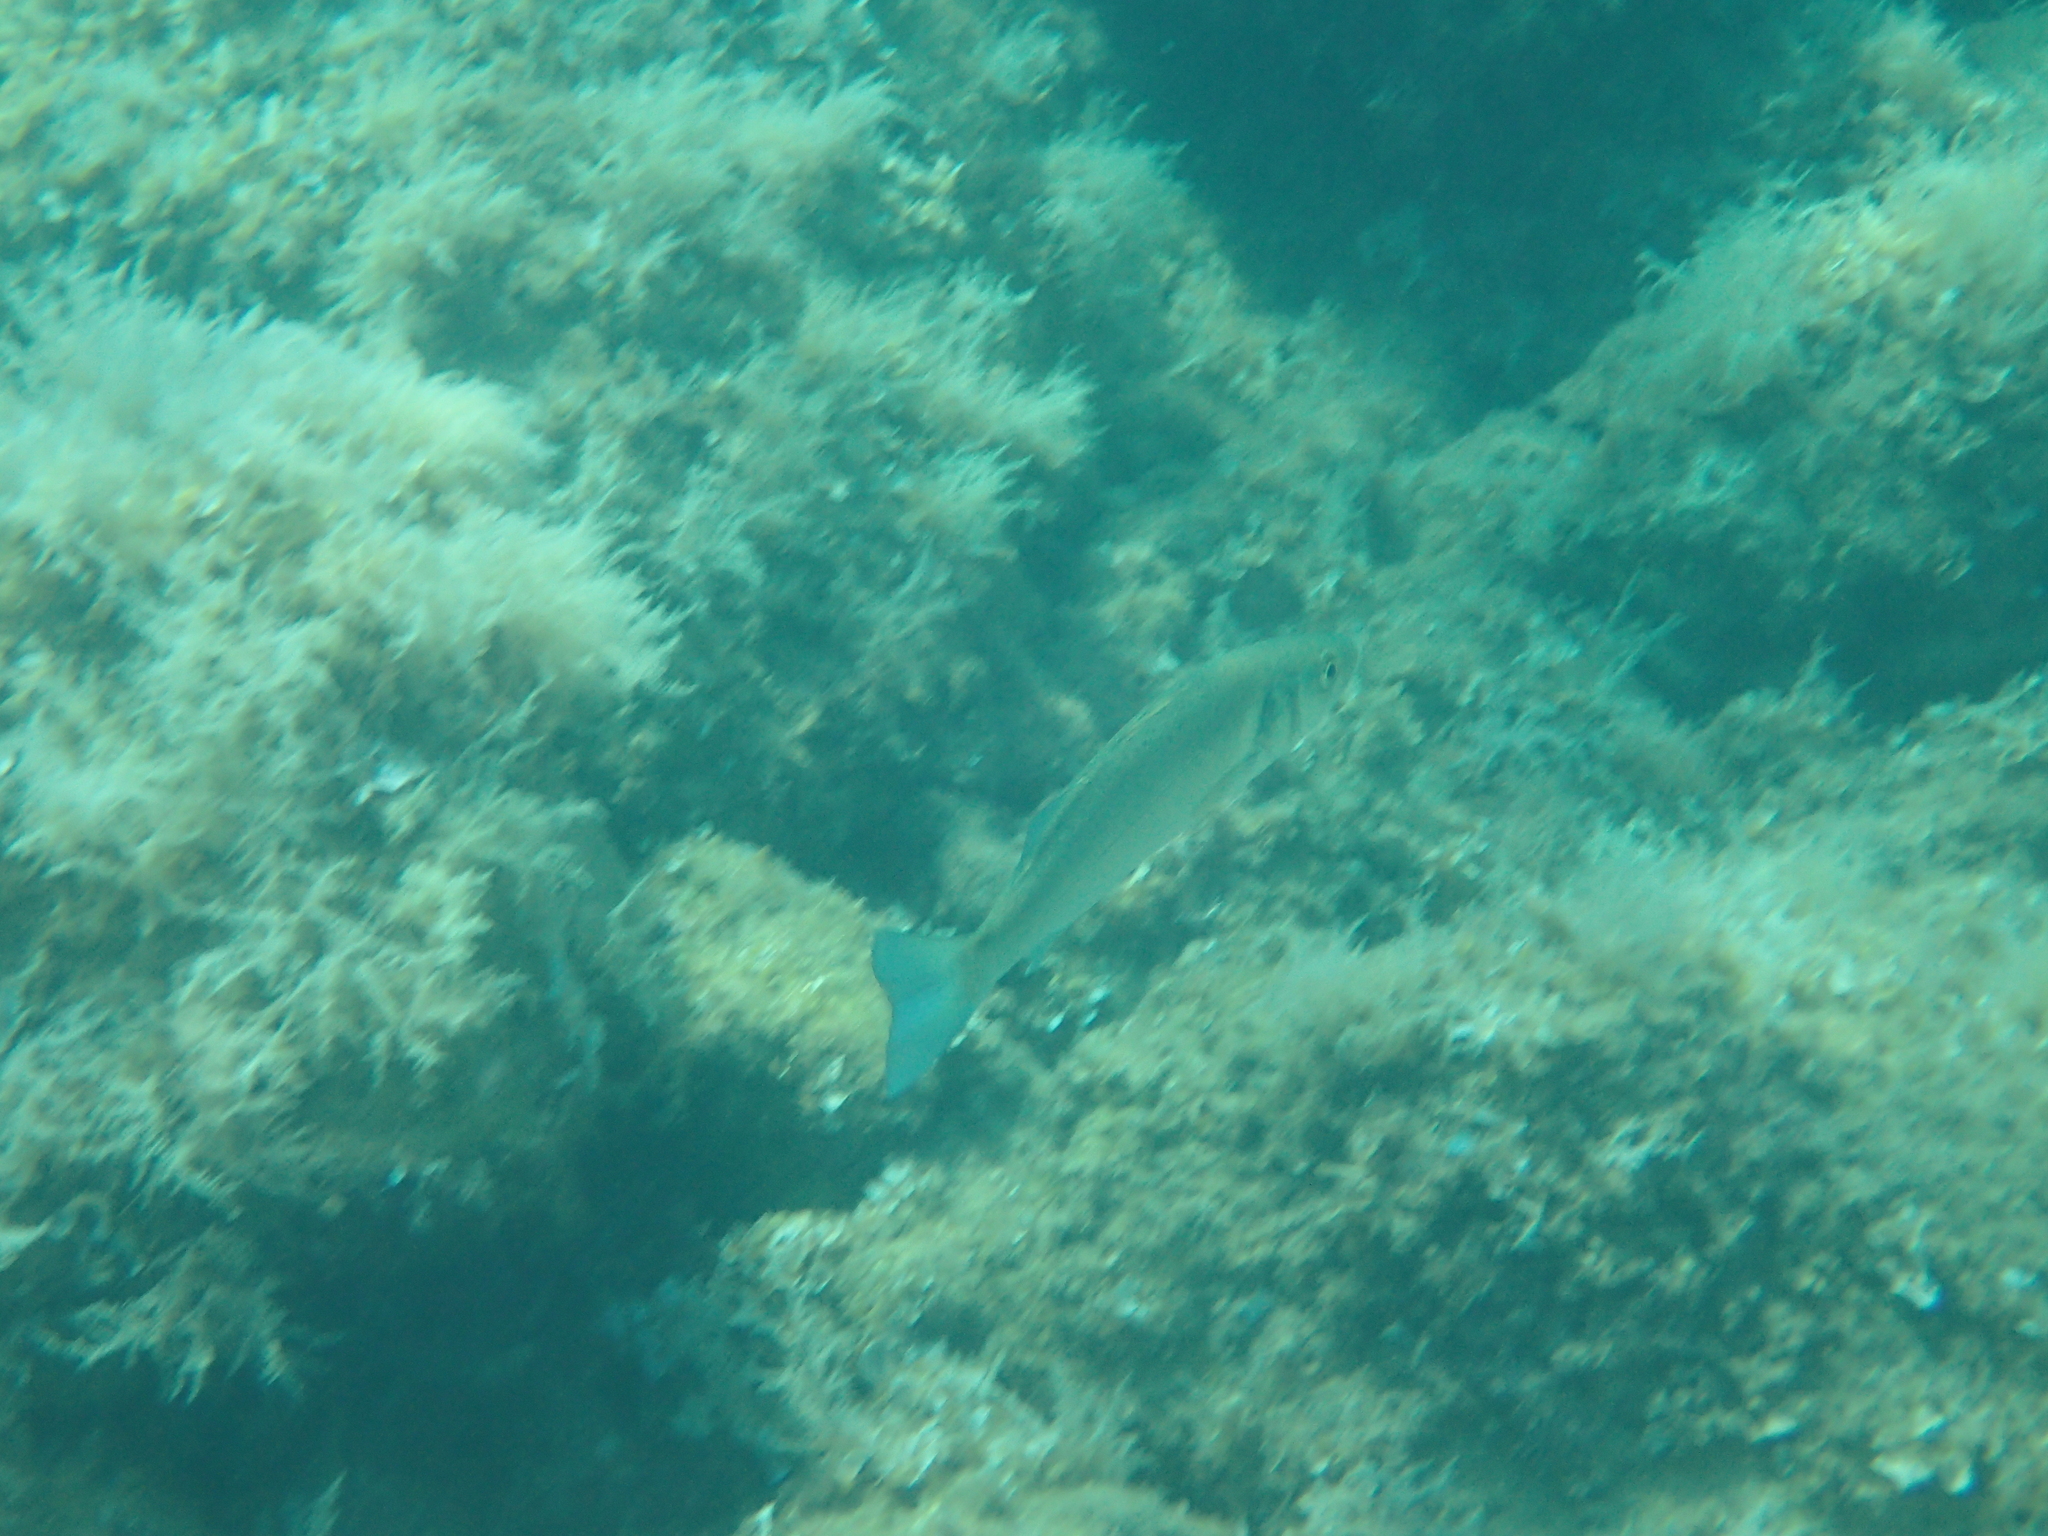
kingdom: Animalia
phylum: Chordata
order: Perciformes
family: Moronidae
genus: Dicentrarchus
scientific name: Dicentrarchus labrax
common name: European seabass
